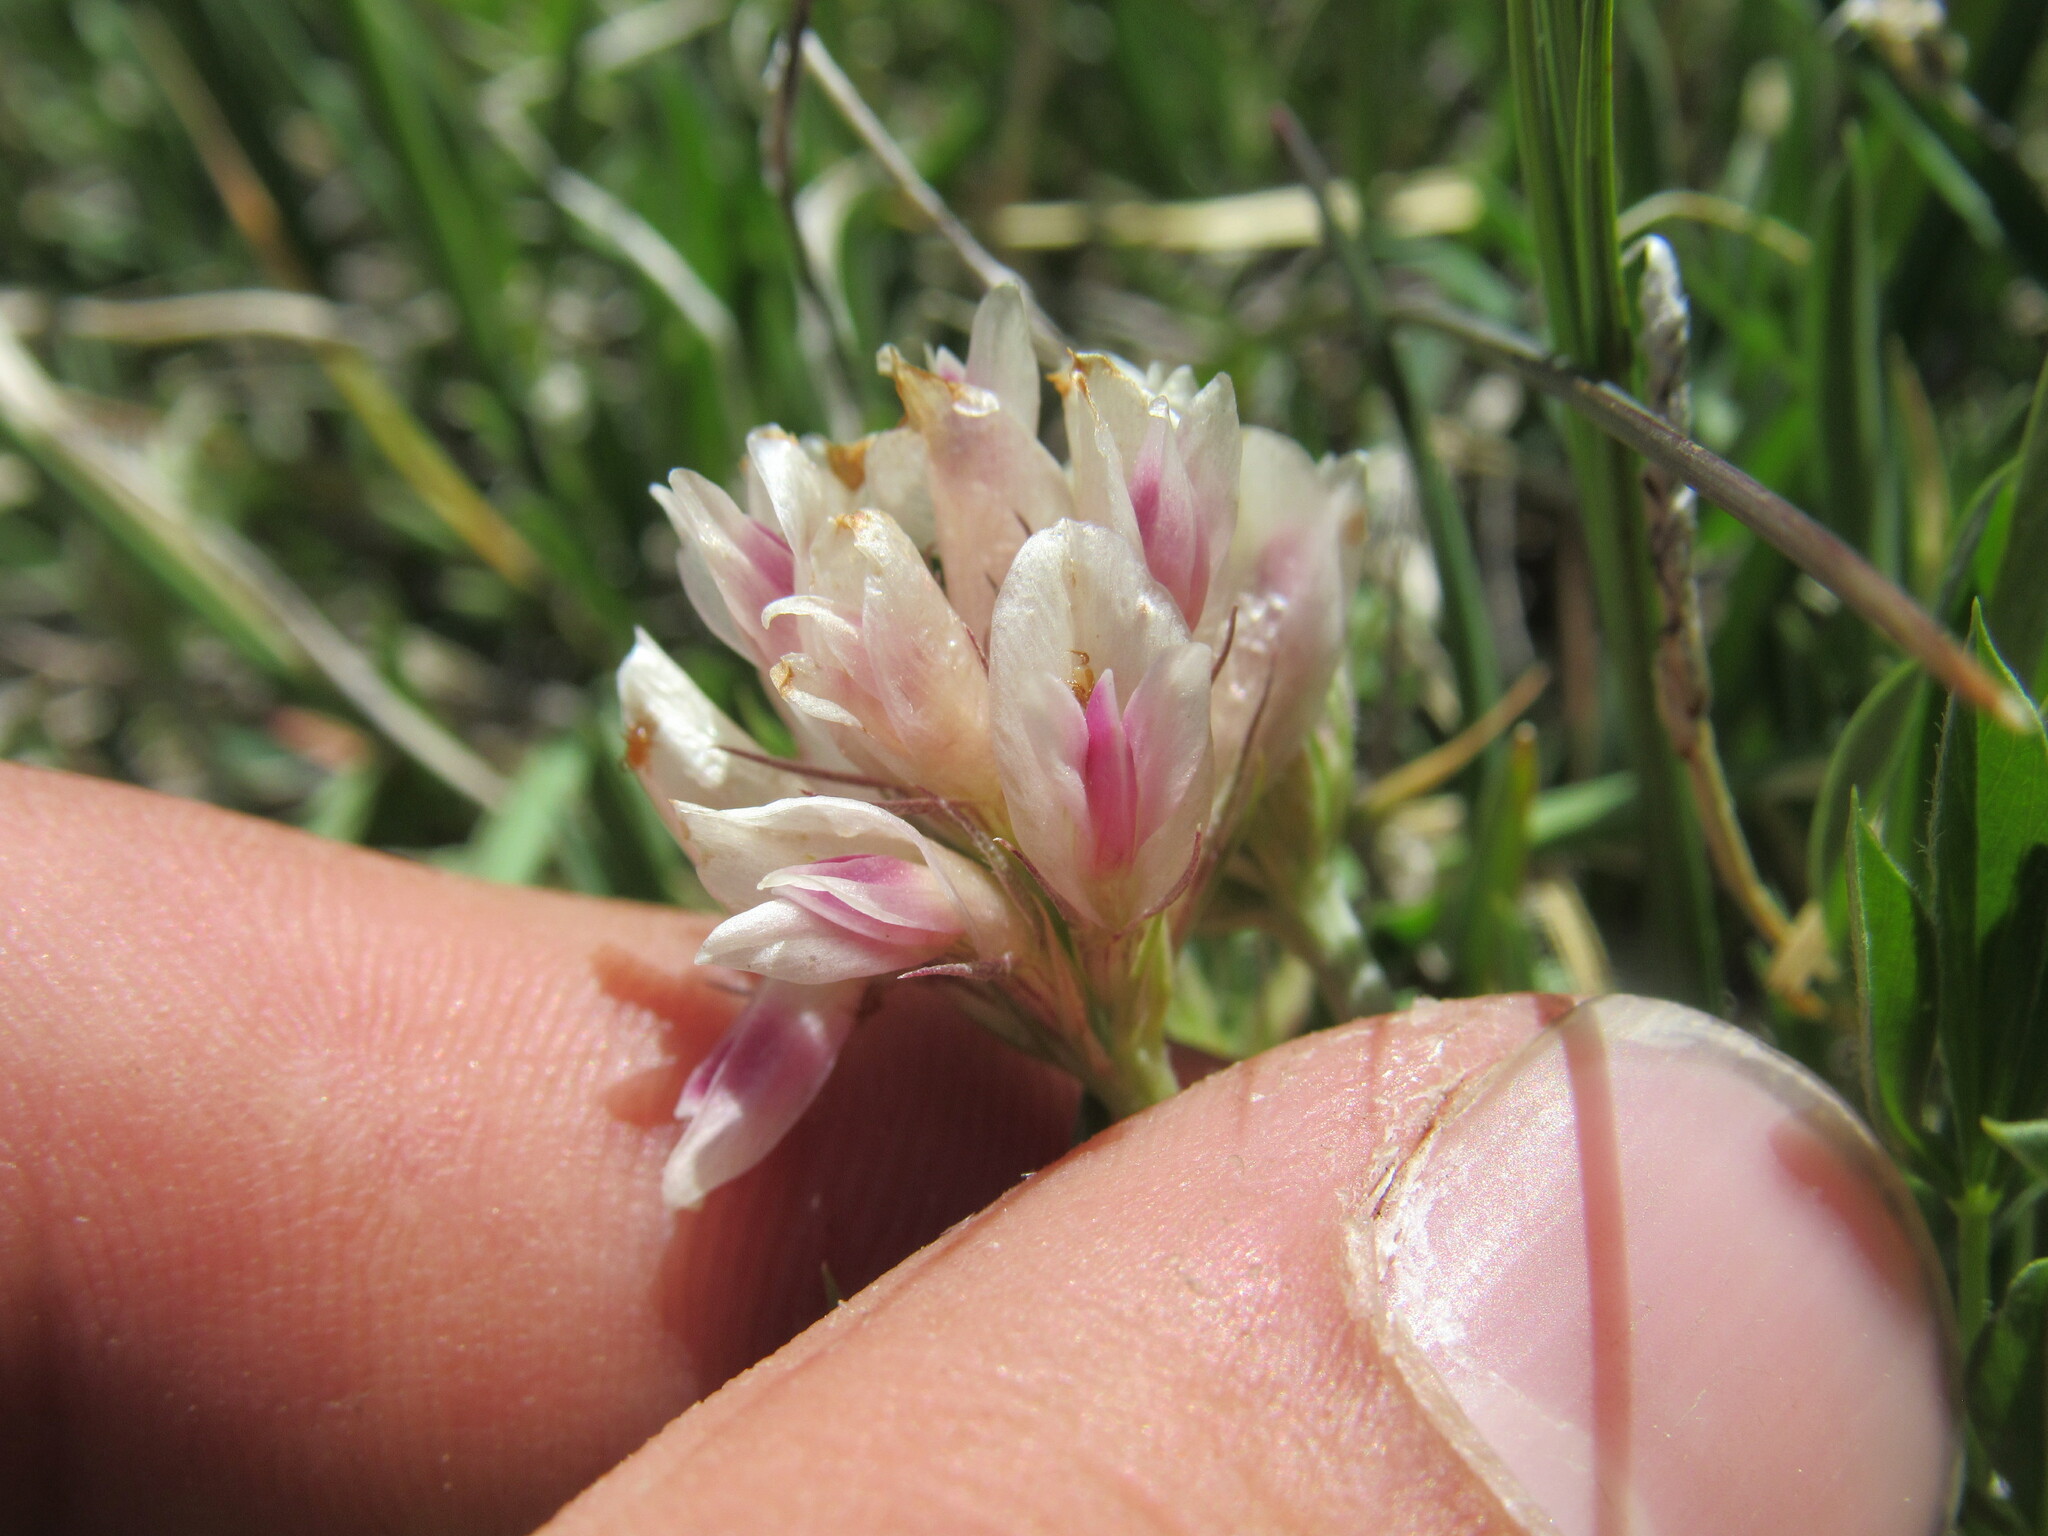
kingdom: Plantae
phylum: Tracheophyta
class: Magnoliopsida
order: Fabales
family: Fabaceae
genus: Trifolium
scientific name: Trifolium dasyphyllum
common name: Whip-root clover
